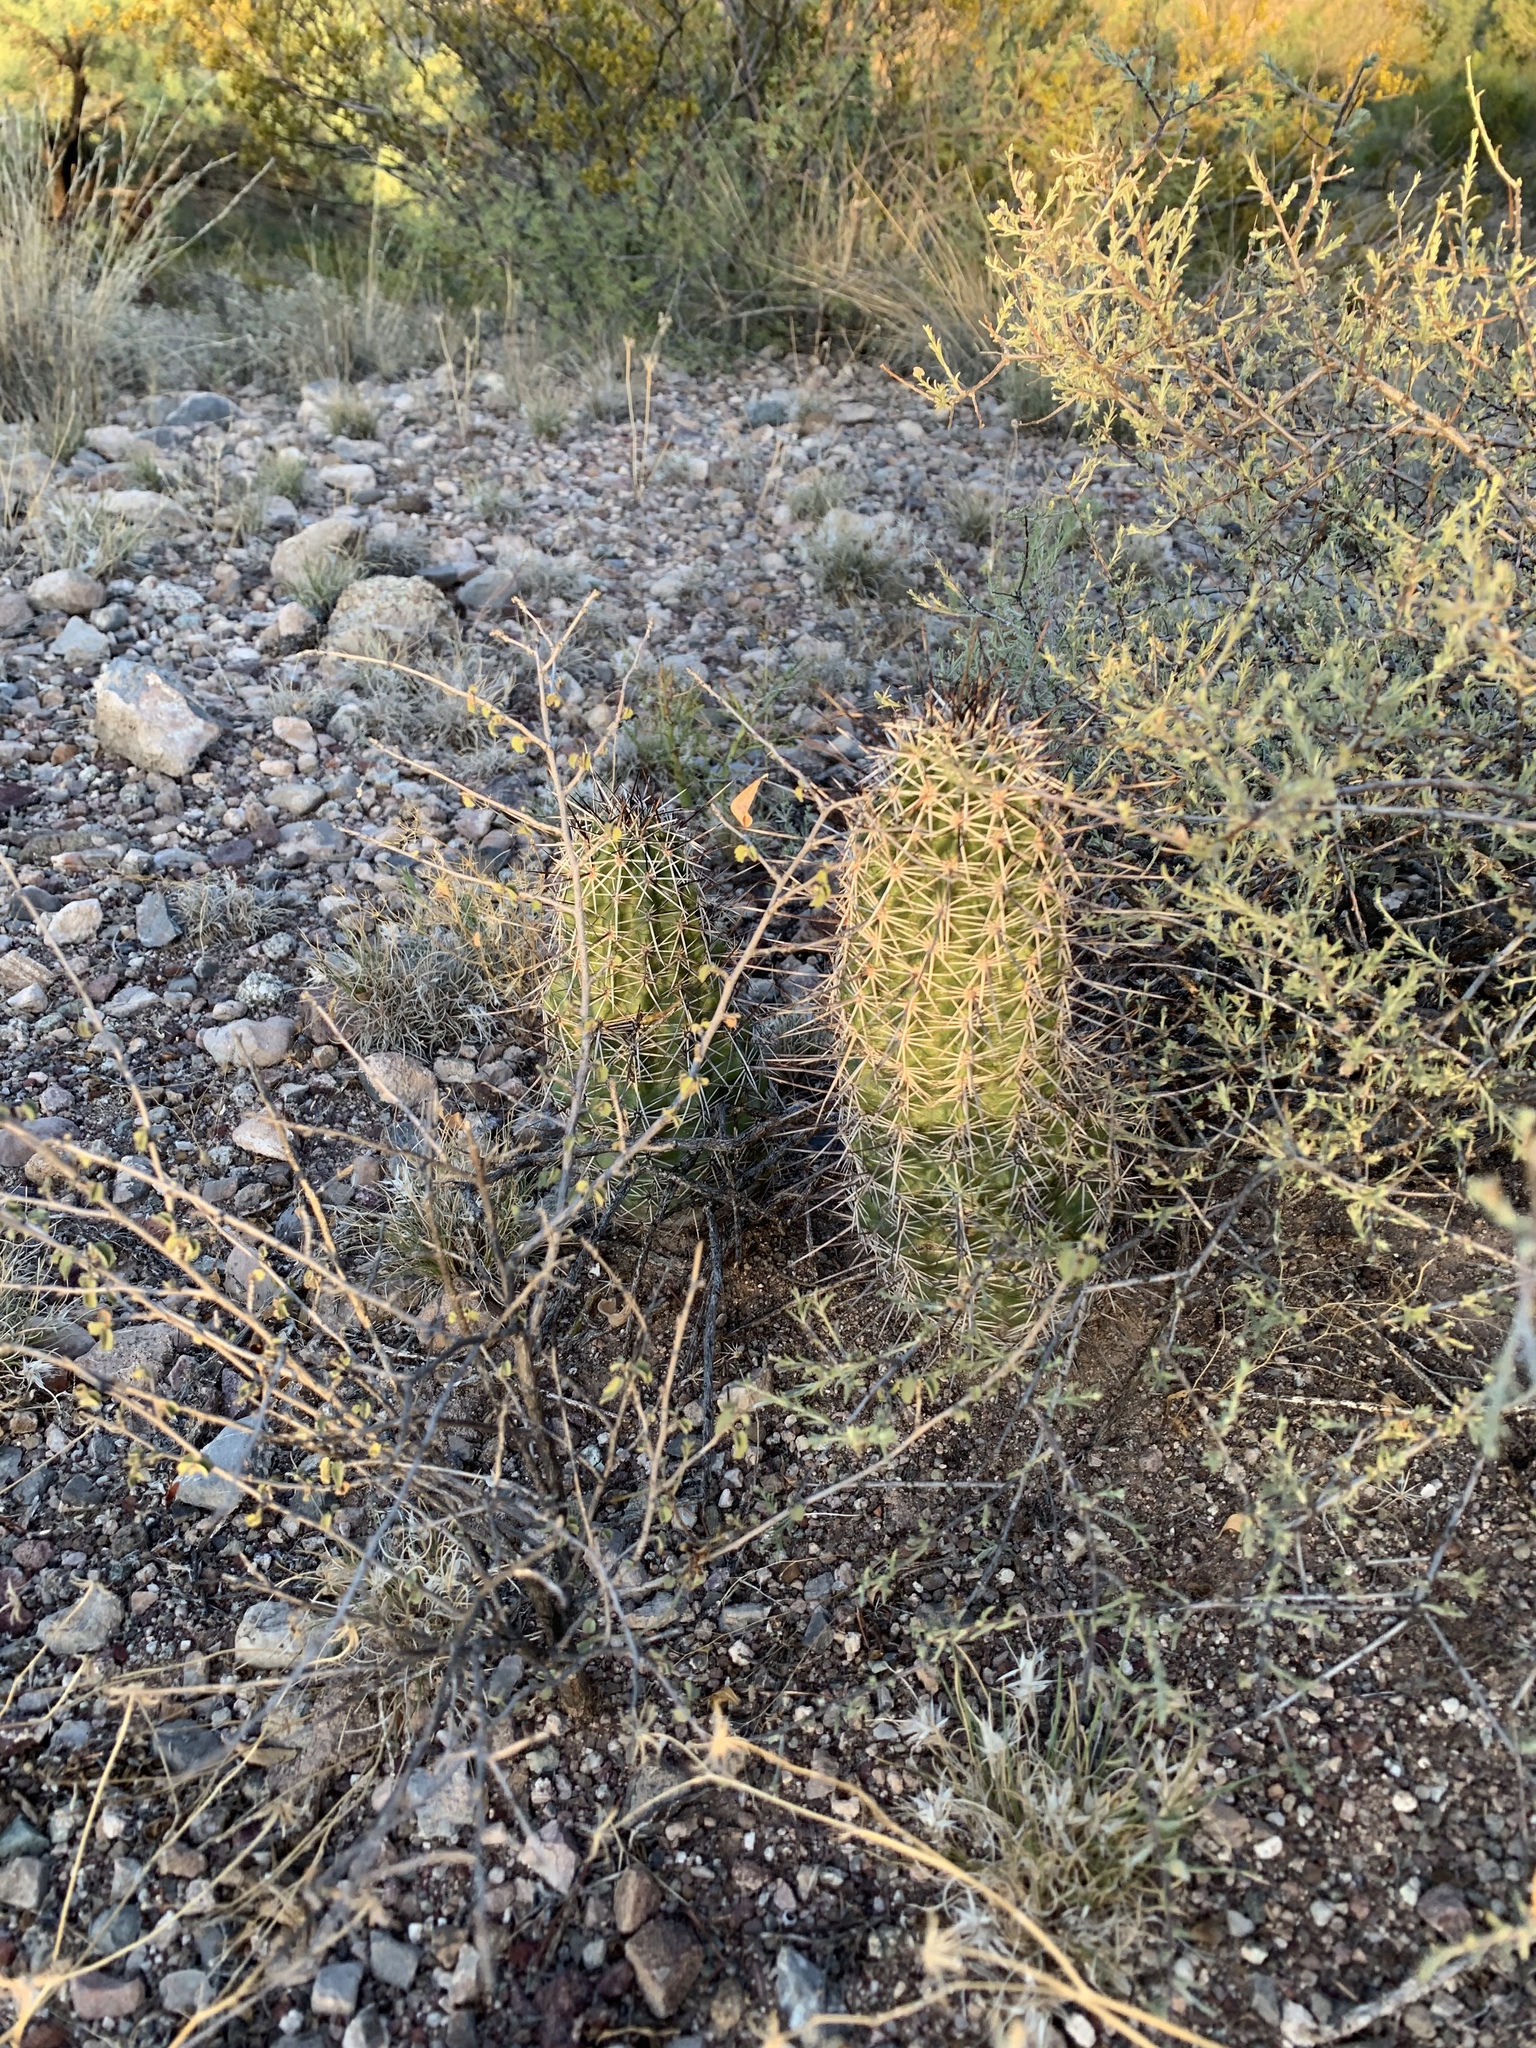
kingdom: Plantae
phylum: Tracheophyta
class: Magnoliopsida
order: Caryophyllales
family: Cactaceae
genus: Echinocereus
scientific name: Echinocereus fasciculatus
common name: Bundle hedgehog
